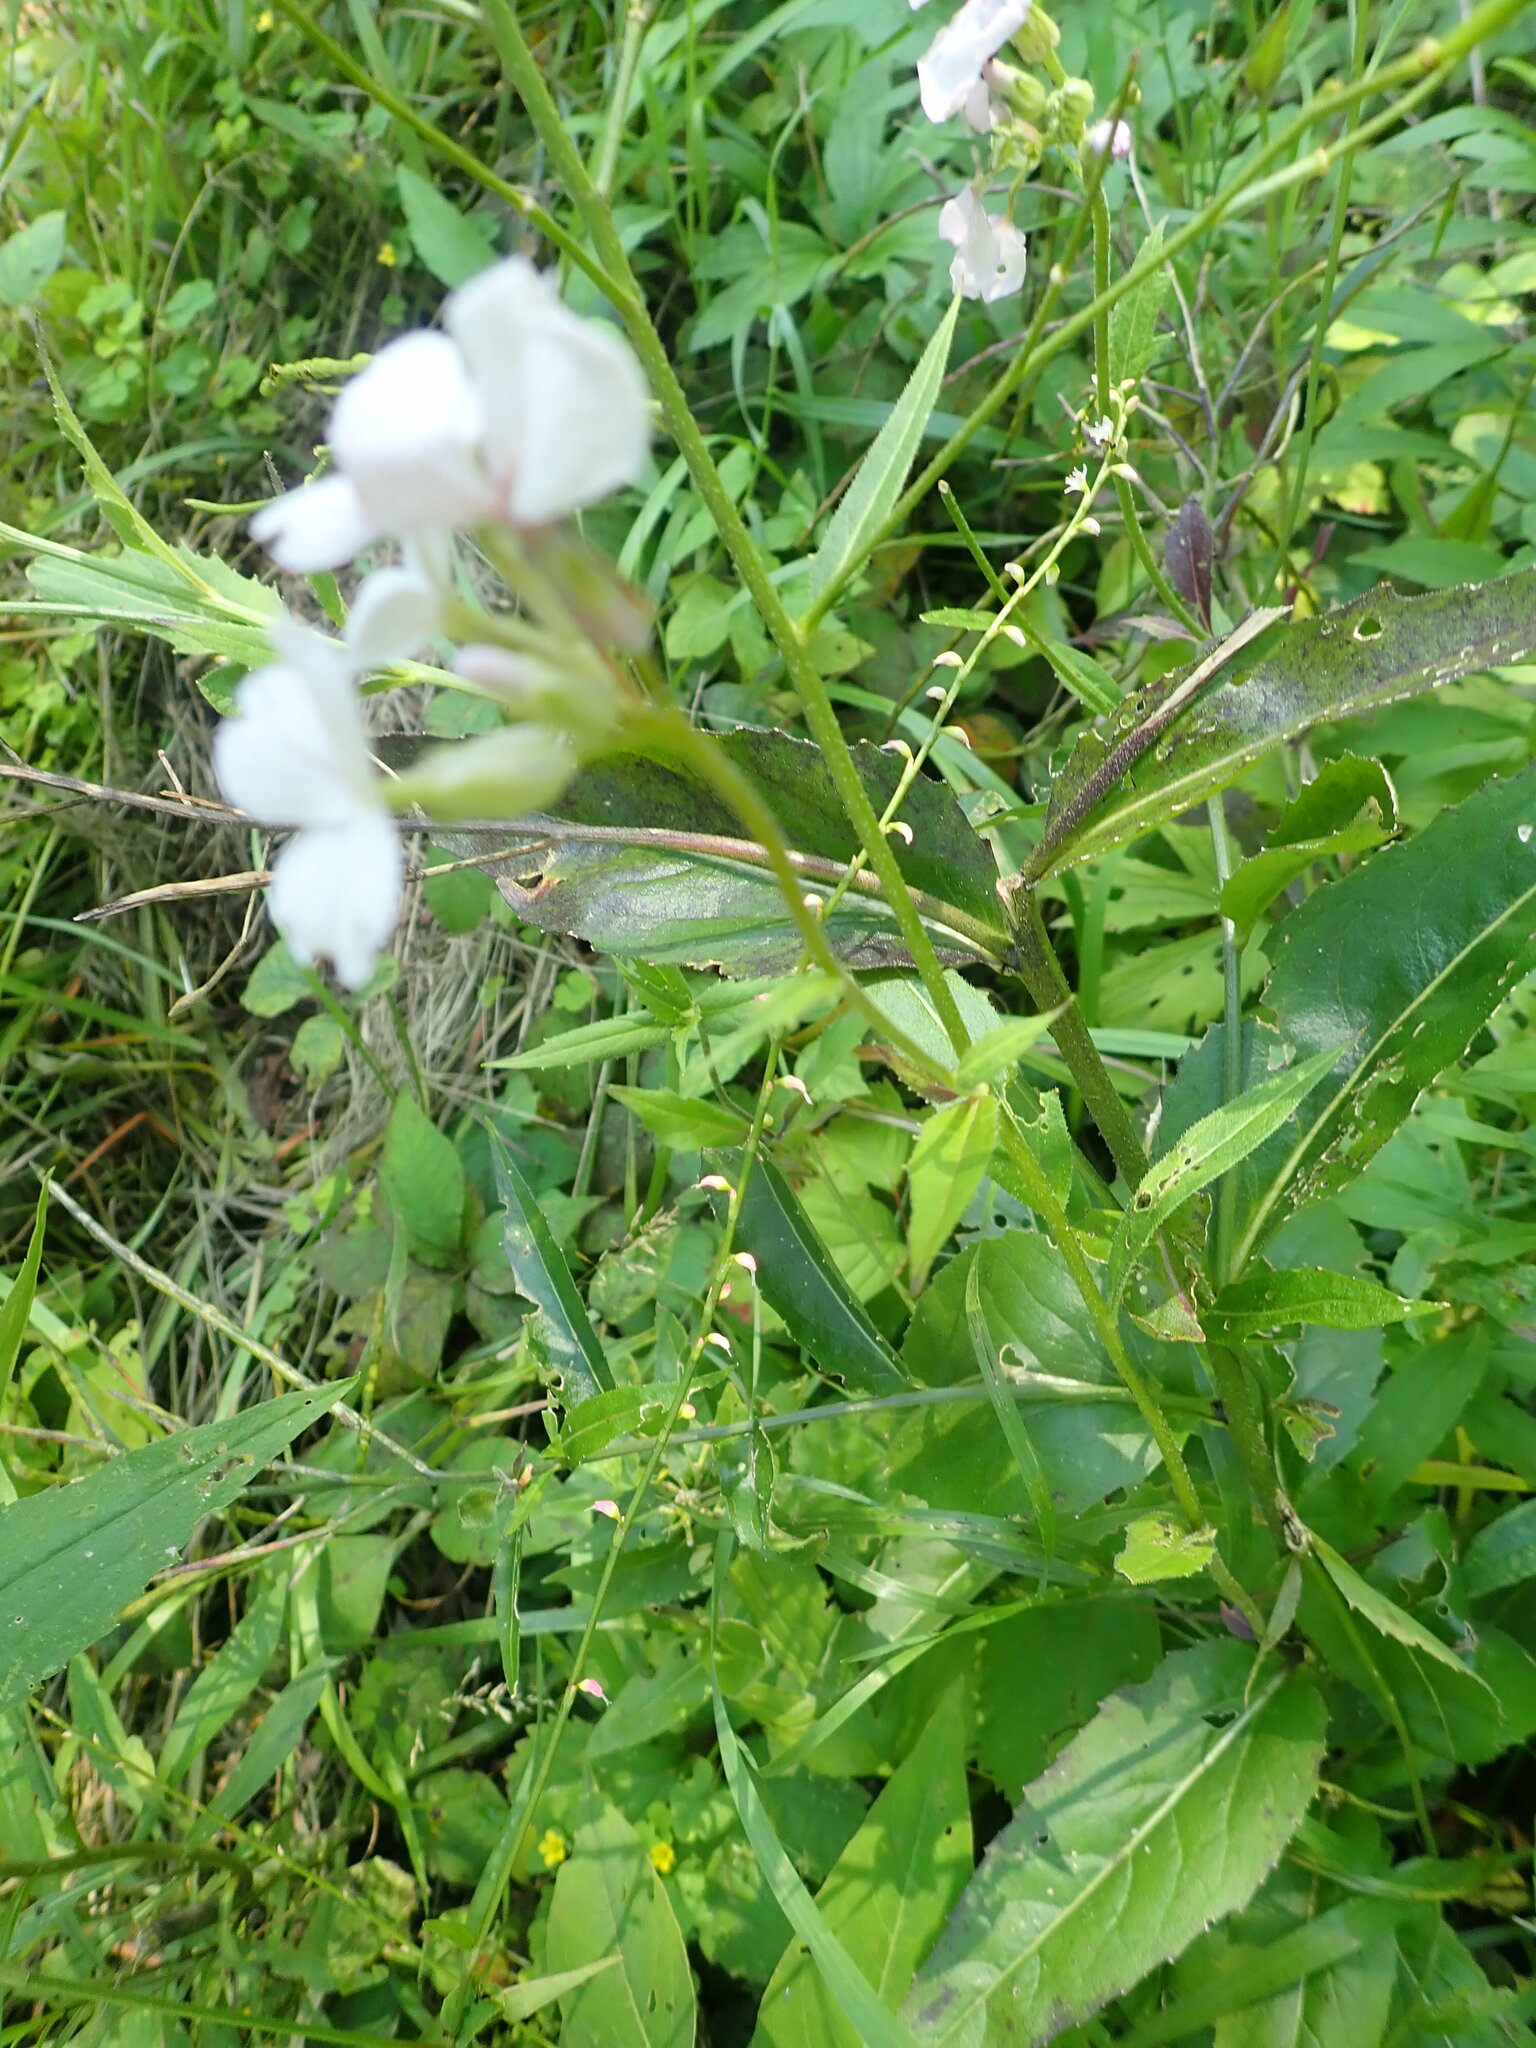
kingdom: Plantae
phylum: Tracheophyta
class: Magnoliopsida
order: Brassicales
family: Brassicaceae
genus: Hesperis
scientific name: Hesperis matronalis
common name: Dame's-violet
